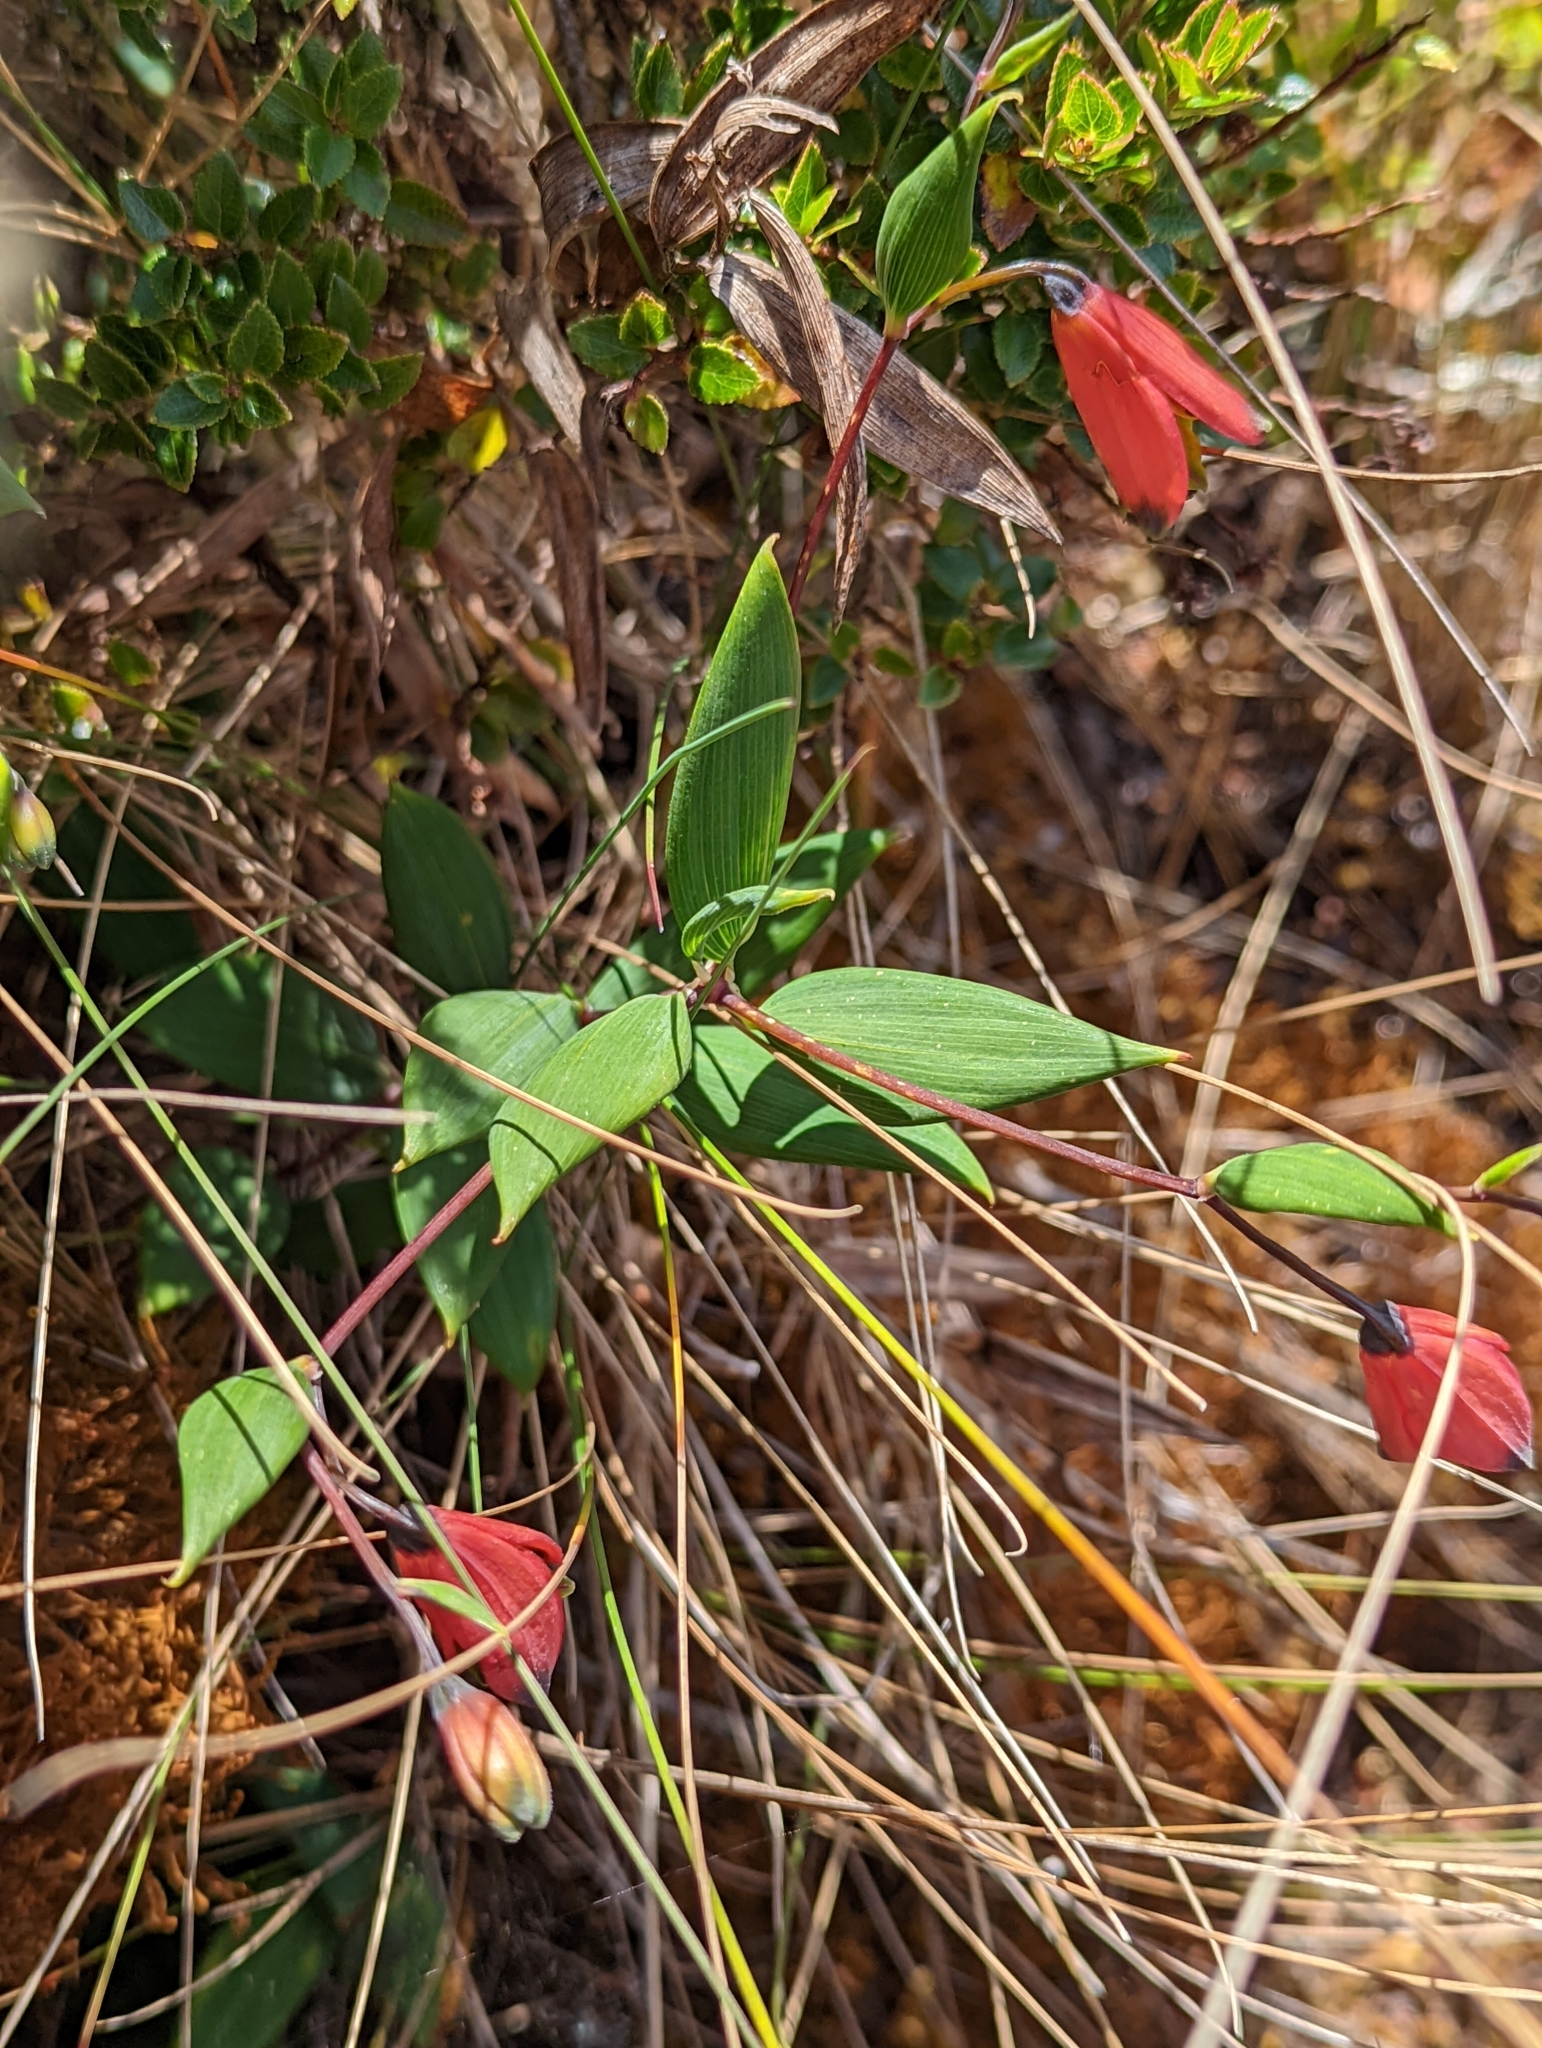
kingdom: Plantae
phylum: Tracheophyta
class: Liliopsida
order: Liliales
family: Alstroemeriaceae
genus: Bomarea
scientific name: Bomarea pauciflora
